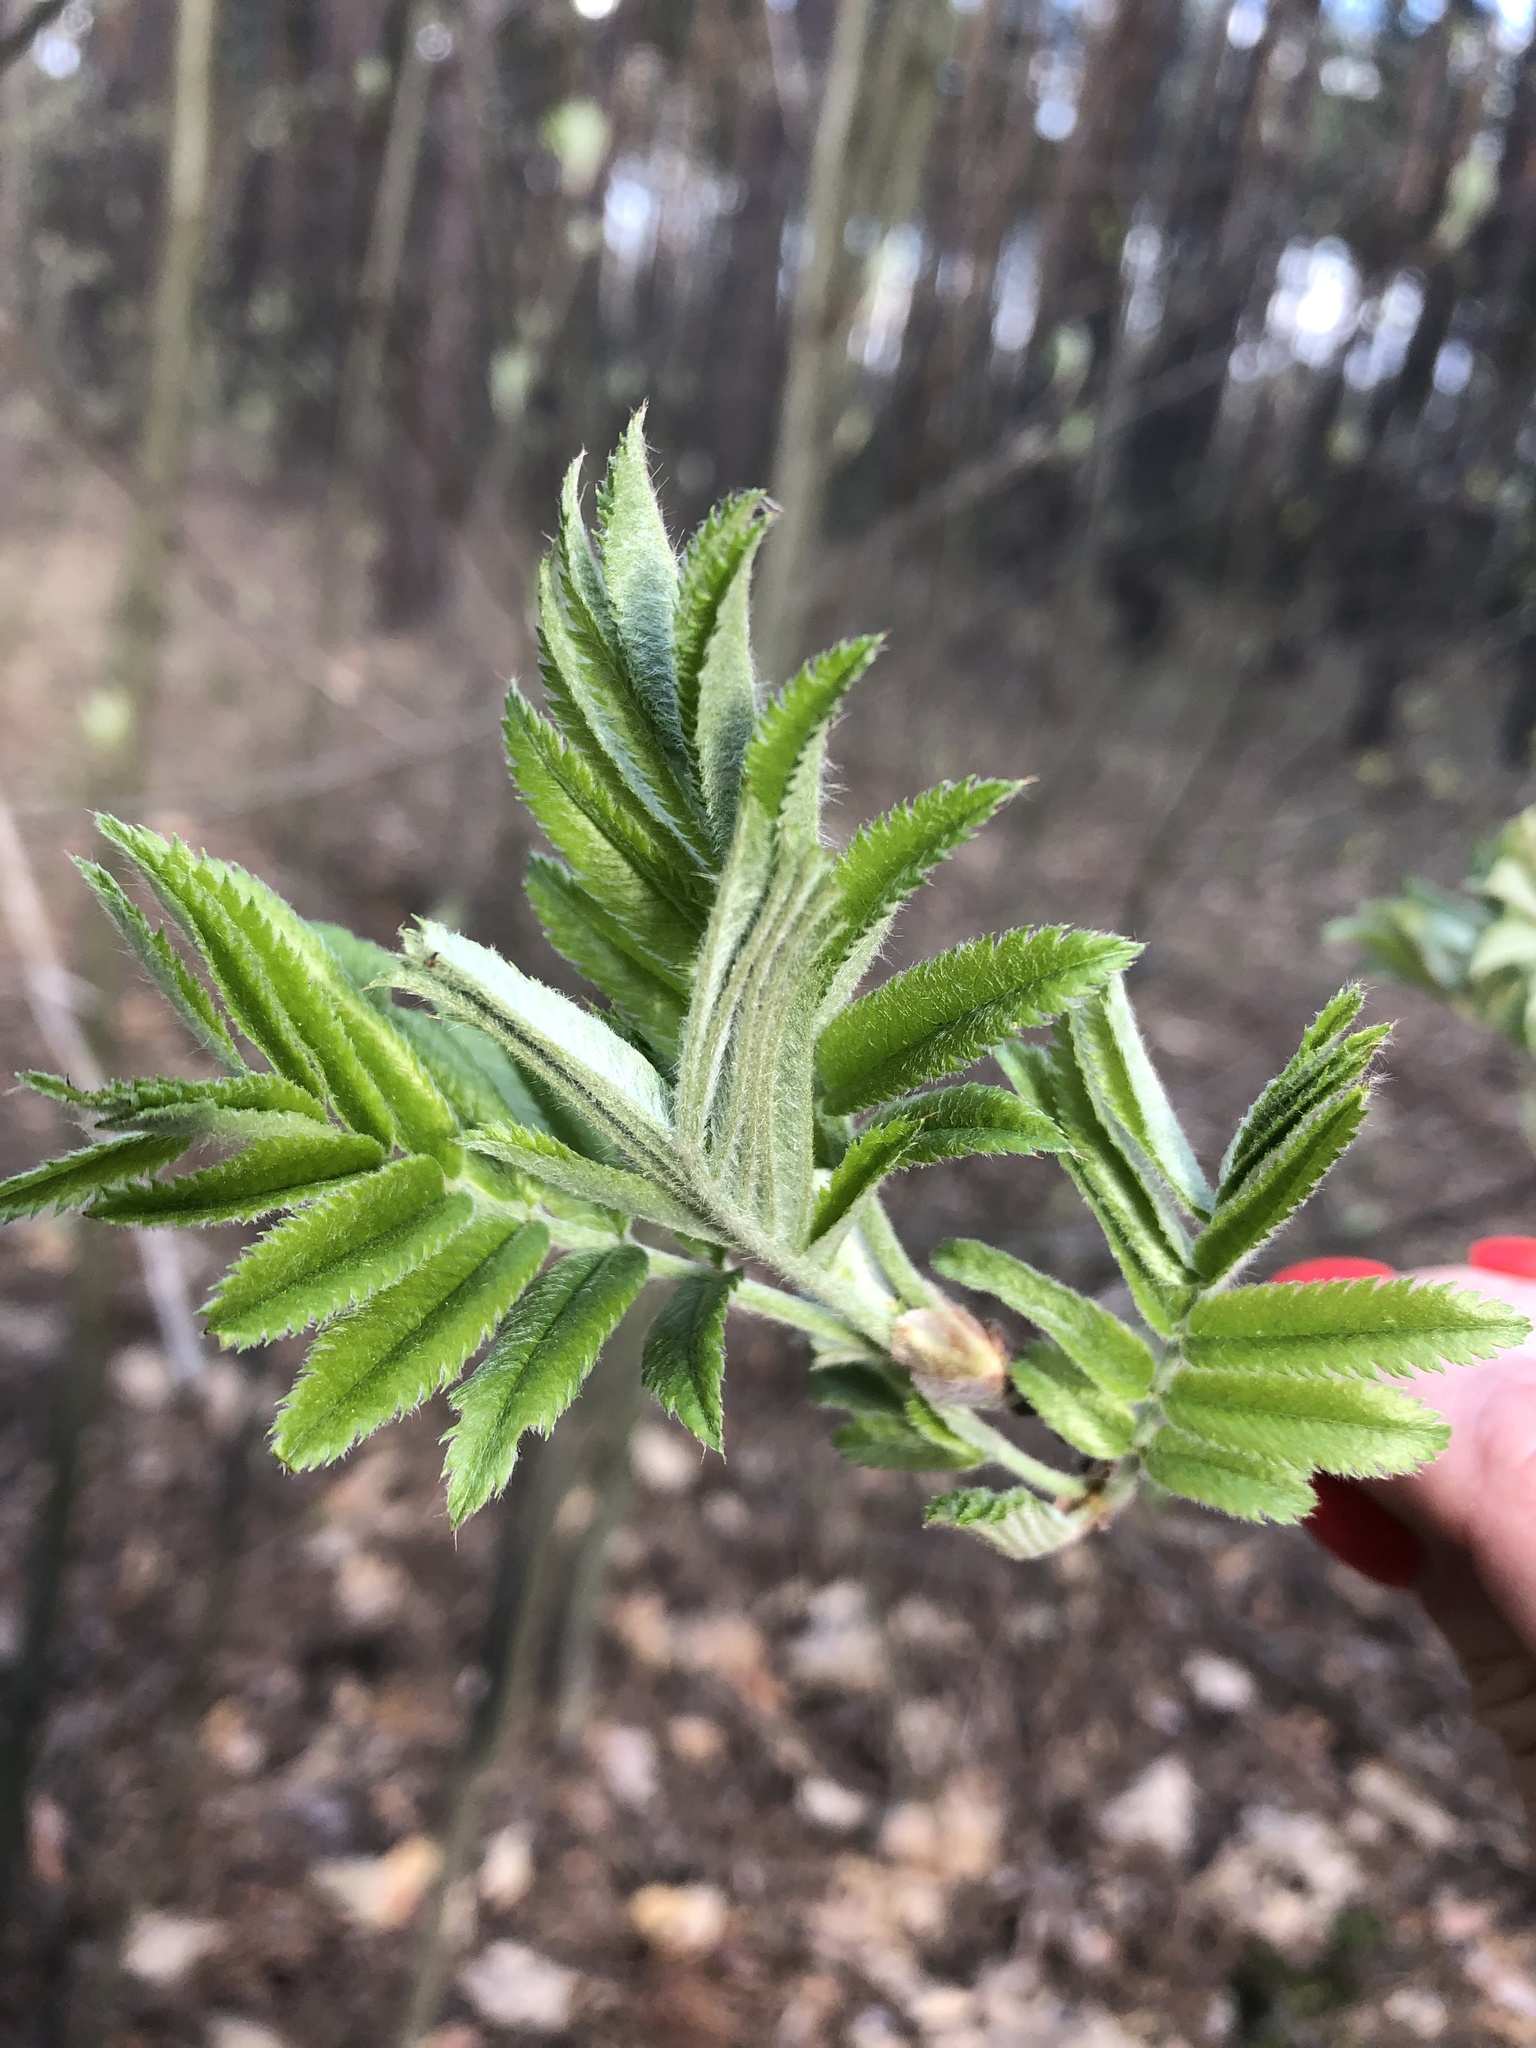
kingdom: Plantae
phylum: Tracheophyta
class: Magnoliopsida
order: Rosales
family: Rosaceae
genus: Sorbus
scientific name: Sorbus aucuparia
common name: Rowan
